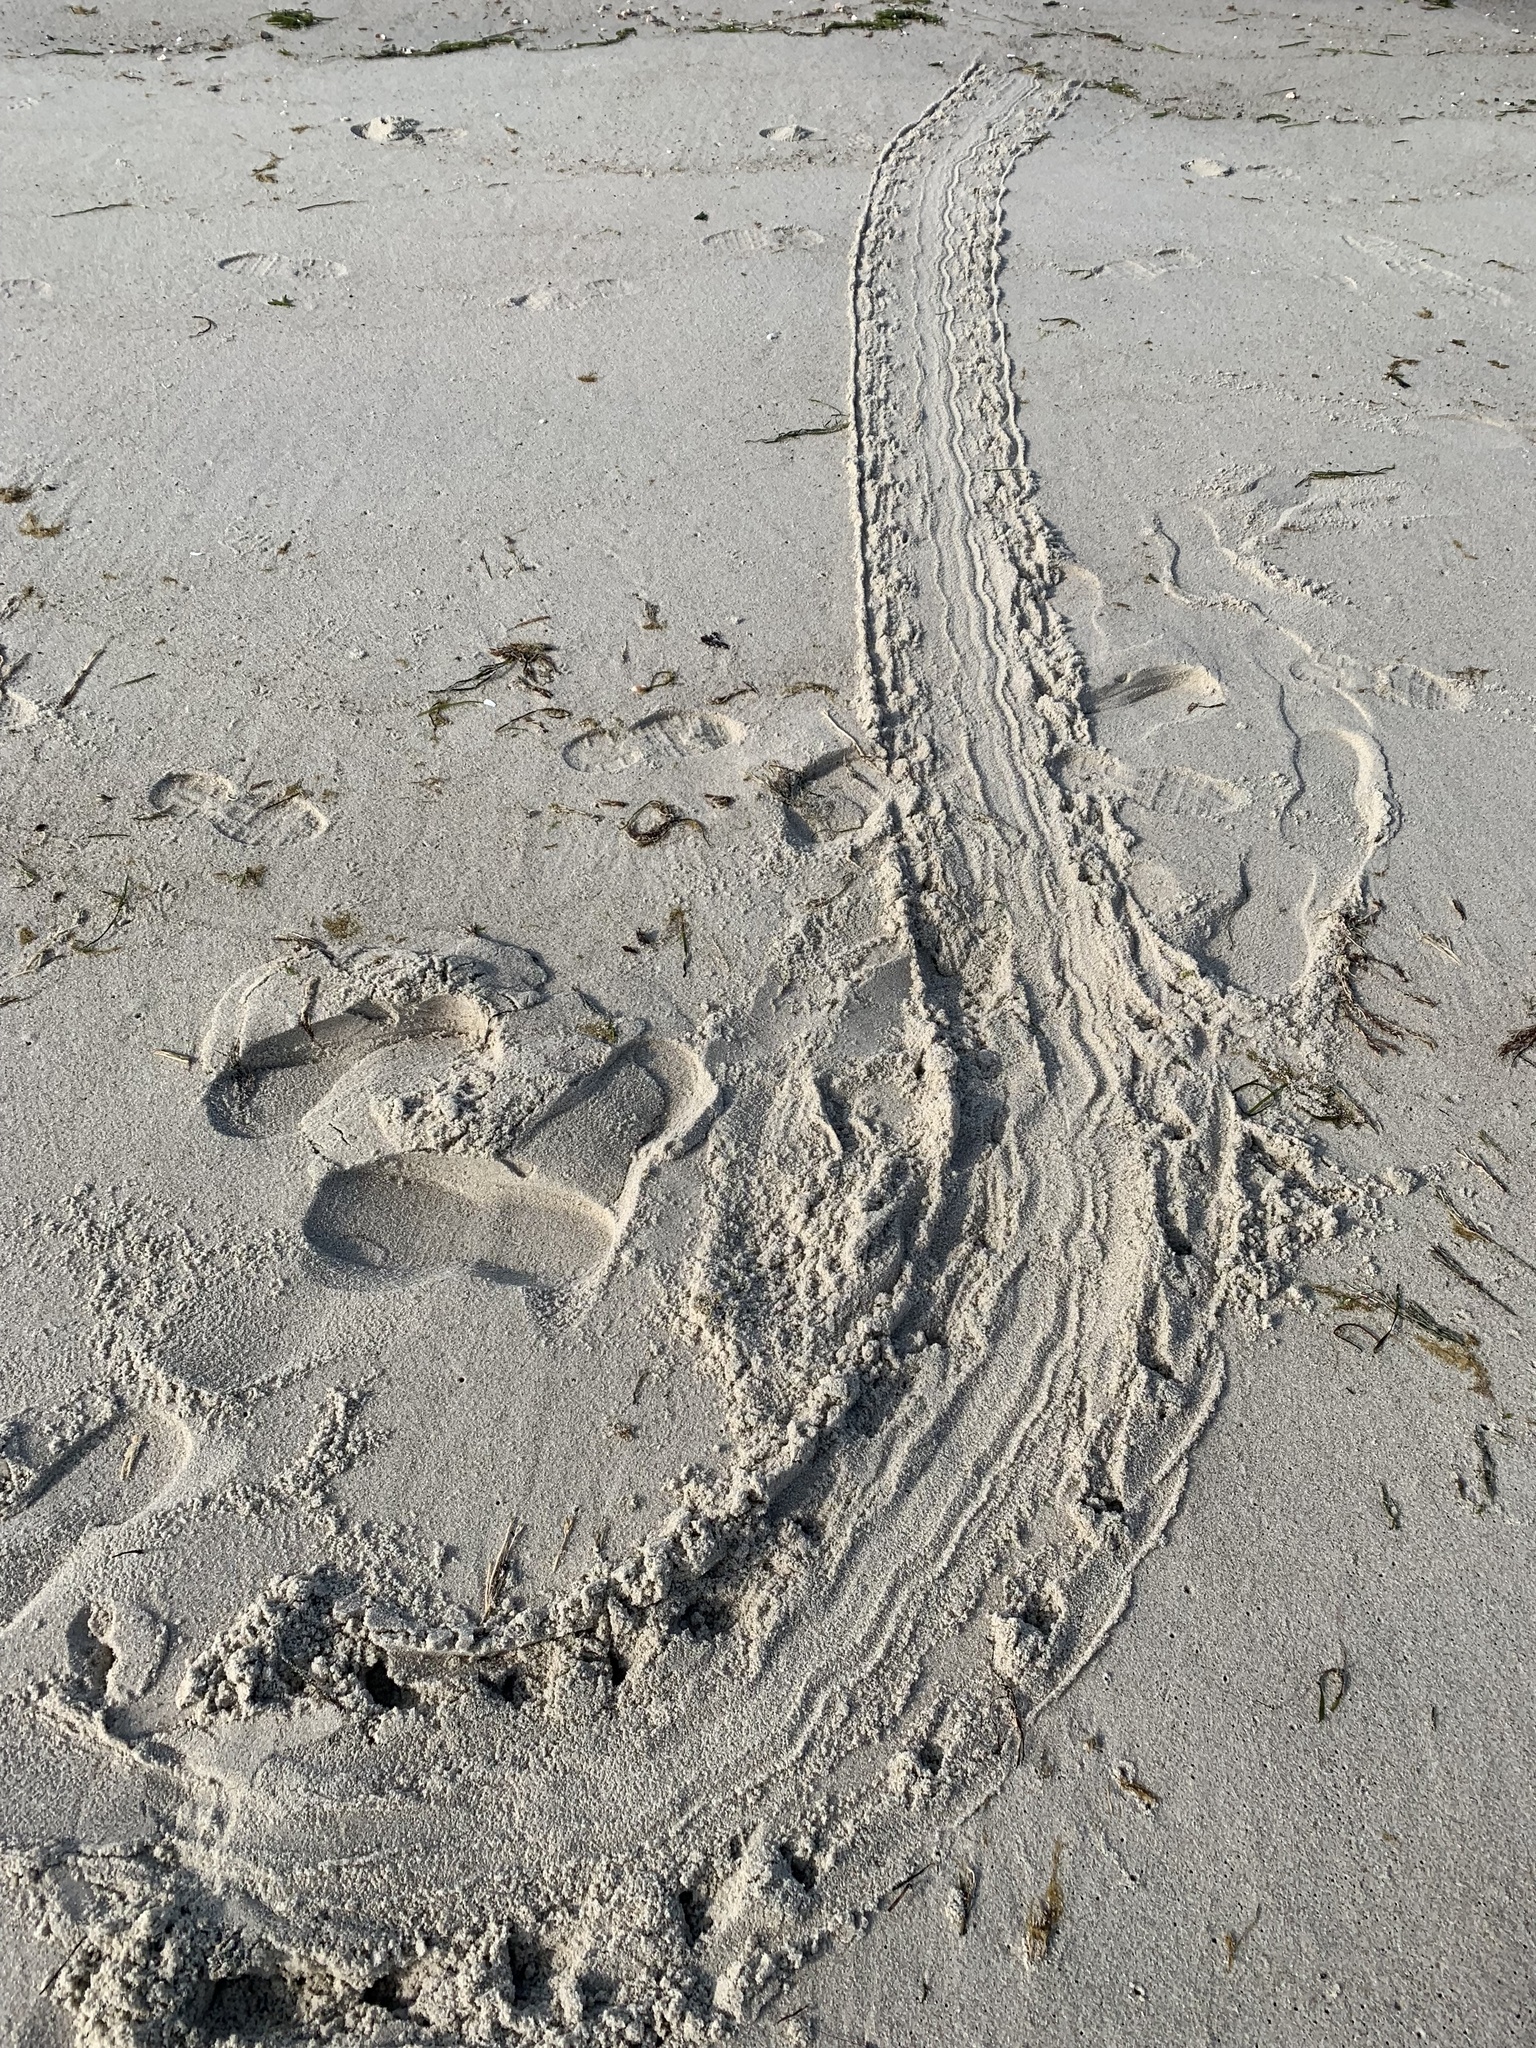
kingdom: Animalia
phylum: Arthropoda
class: Merostomata
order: Xiphosurida
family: Limulidae
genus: Limulus
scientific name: Limulus polyphemus
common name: Horseshoe crab
